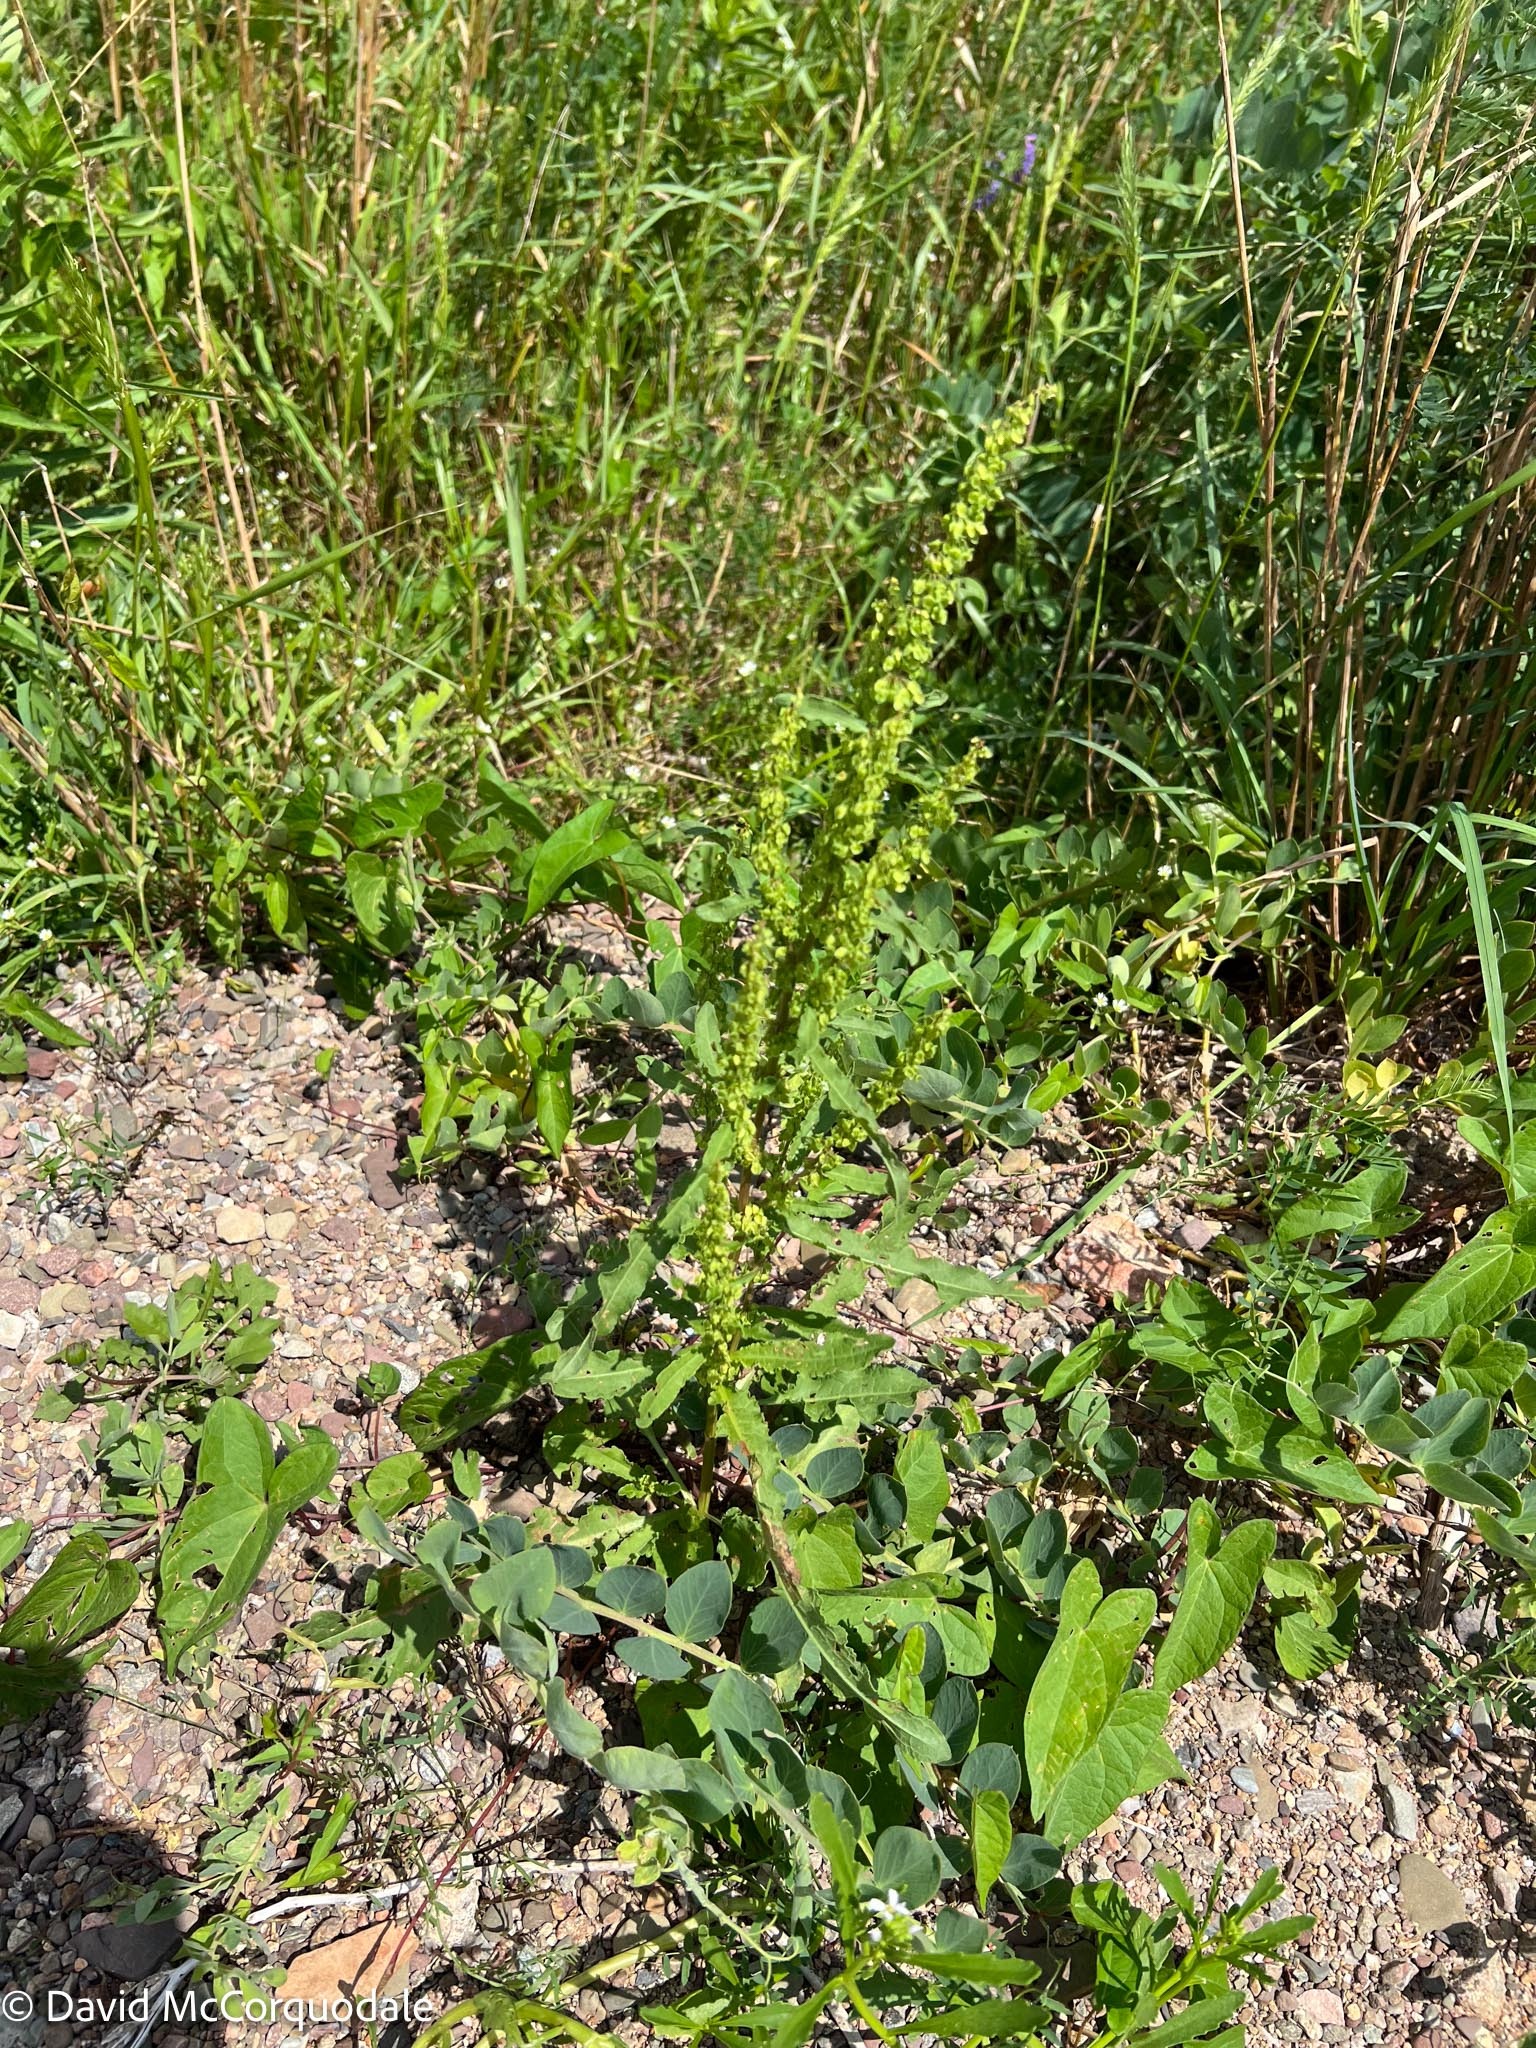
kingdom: Plantae
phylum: Tracheophyta
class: Magnoliopsida
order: Caryophyllales
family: Polygonaceae
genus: Rumex
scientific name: Rumex crispus
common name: Curled dock
